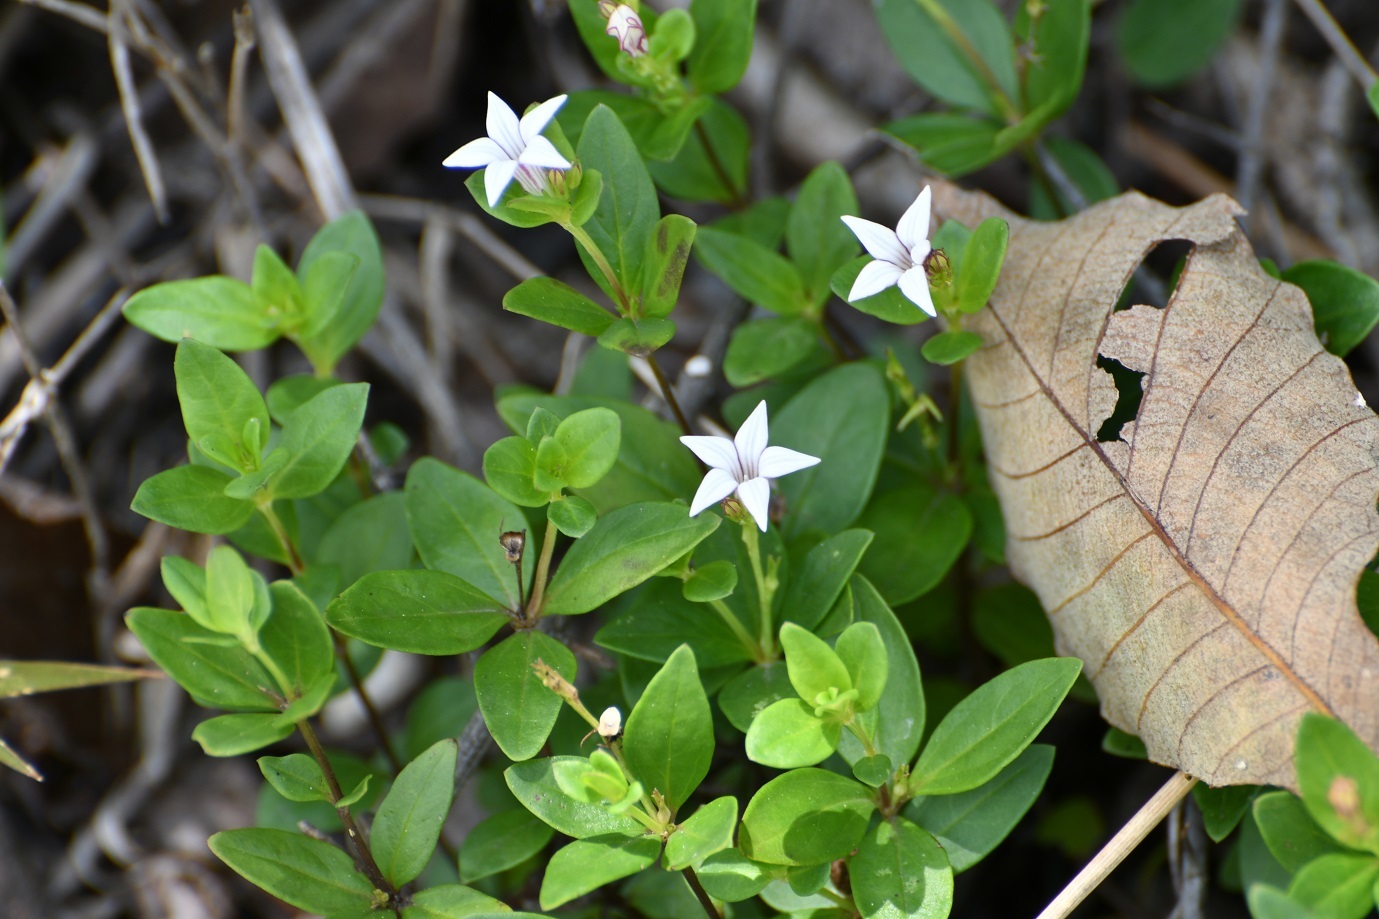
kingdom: Plantae
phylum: Tracheophyta
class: Magnoliopsida
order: Gentianales
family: Loganiaceae
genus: Spigelia
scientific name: Spigelia hedyotidea
